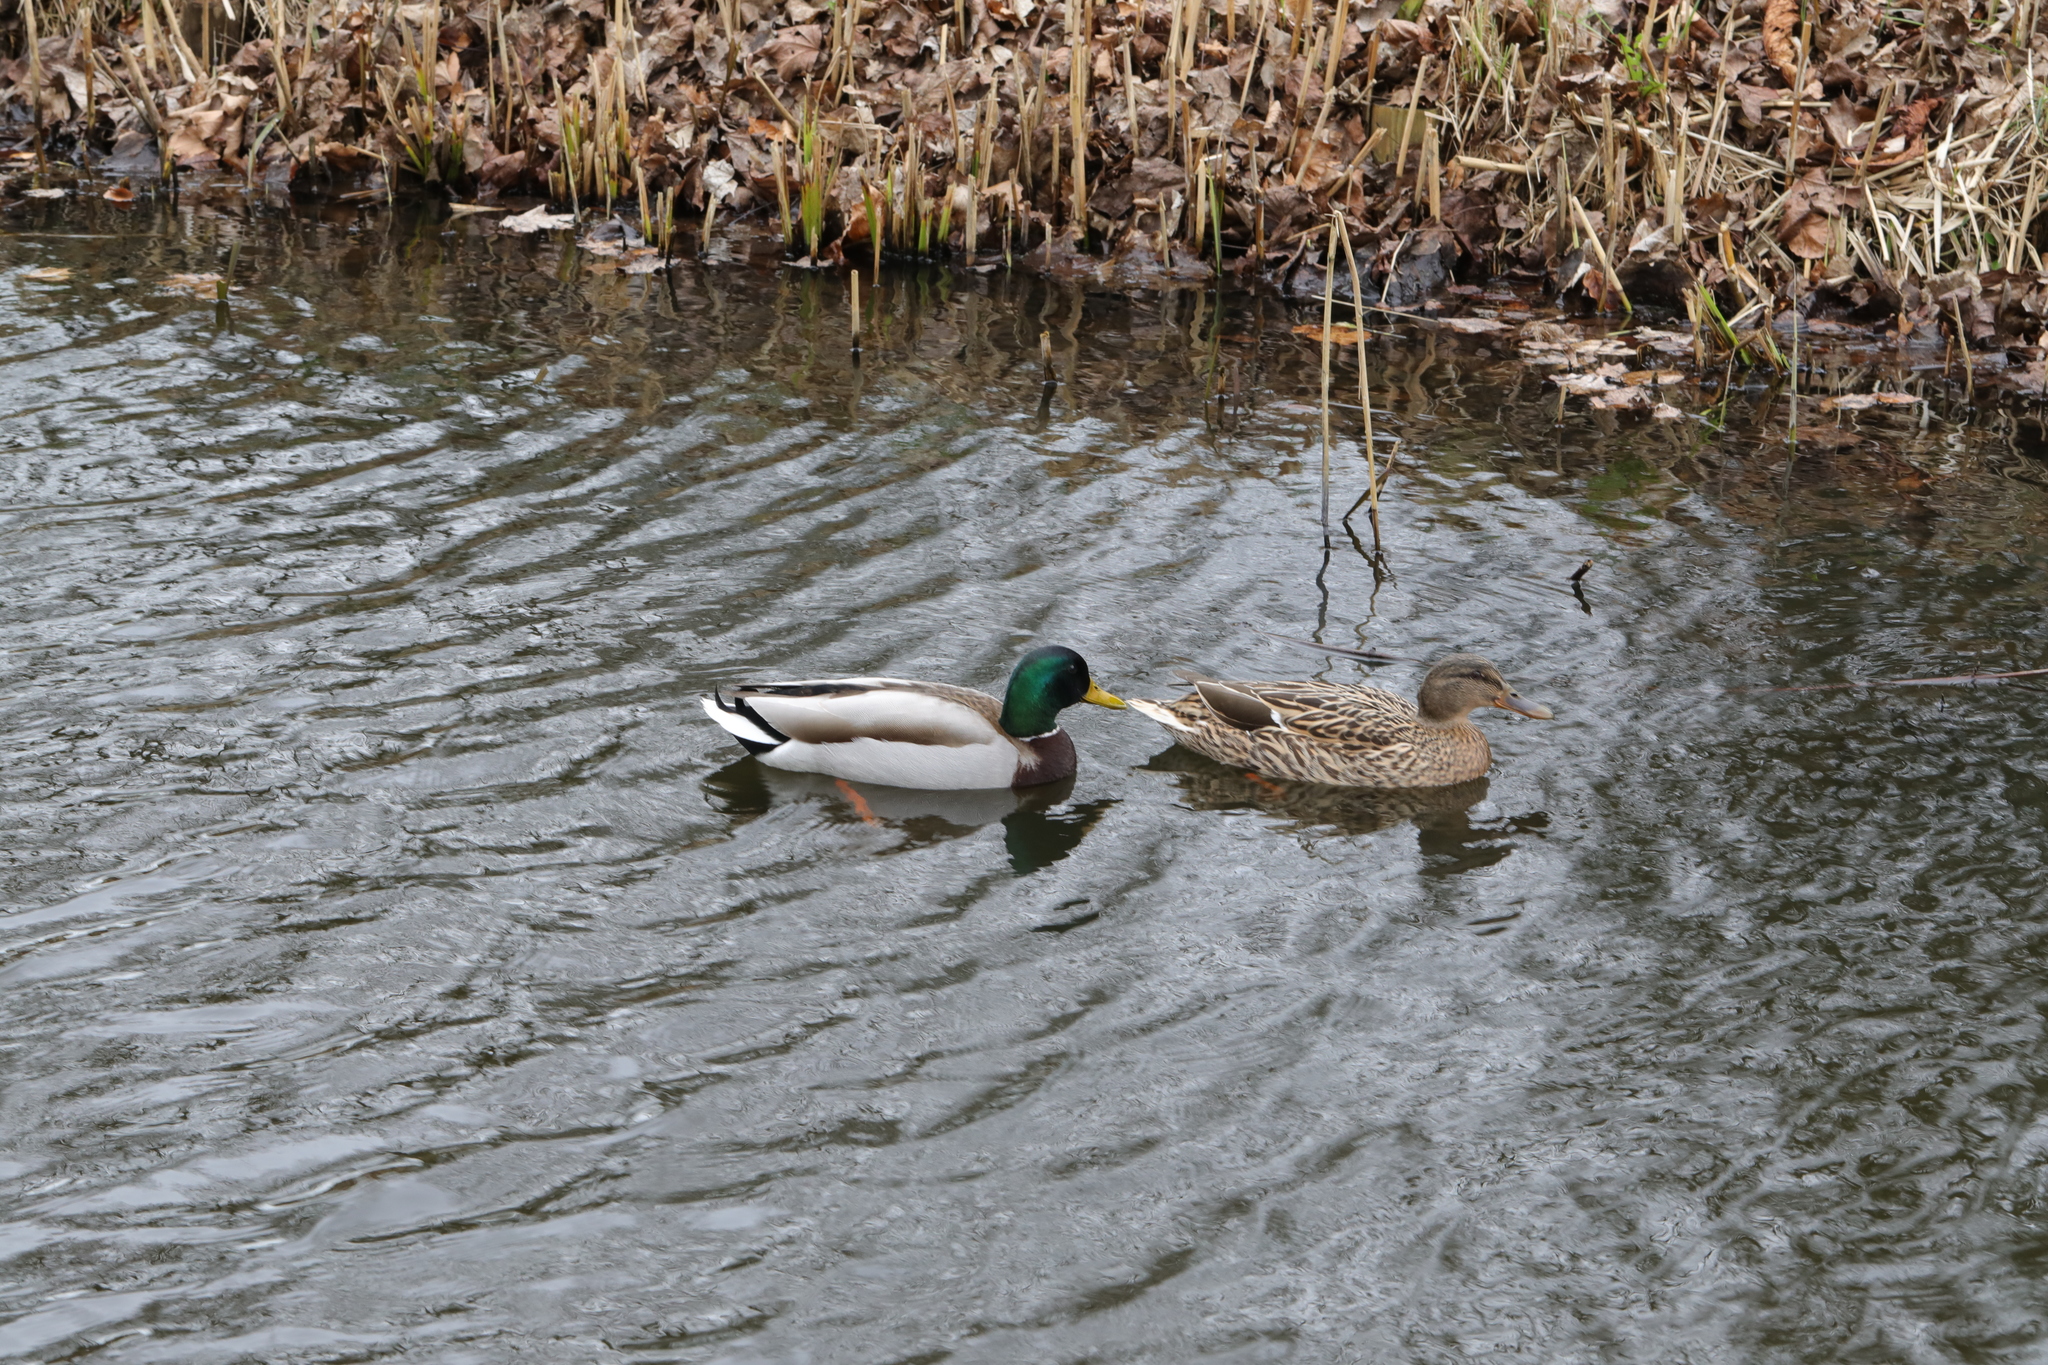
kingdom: Animalia
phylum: Chordata
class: Aves
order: Anseriformes
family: Anatidae
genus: Anas
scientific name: Anas platyrhynchos
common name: Mallard
